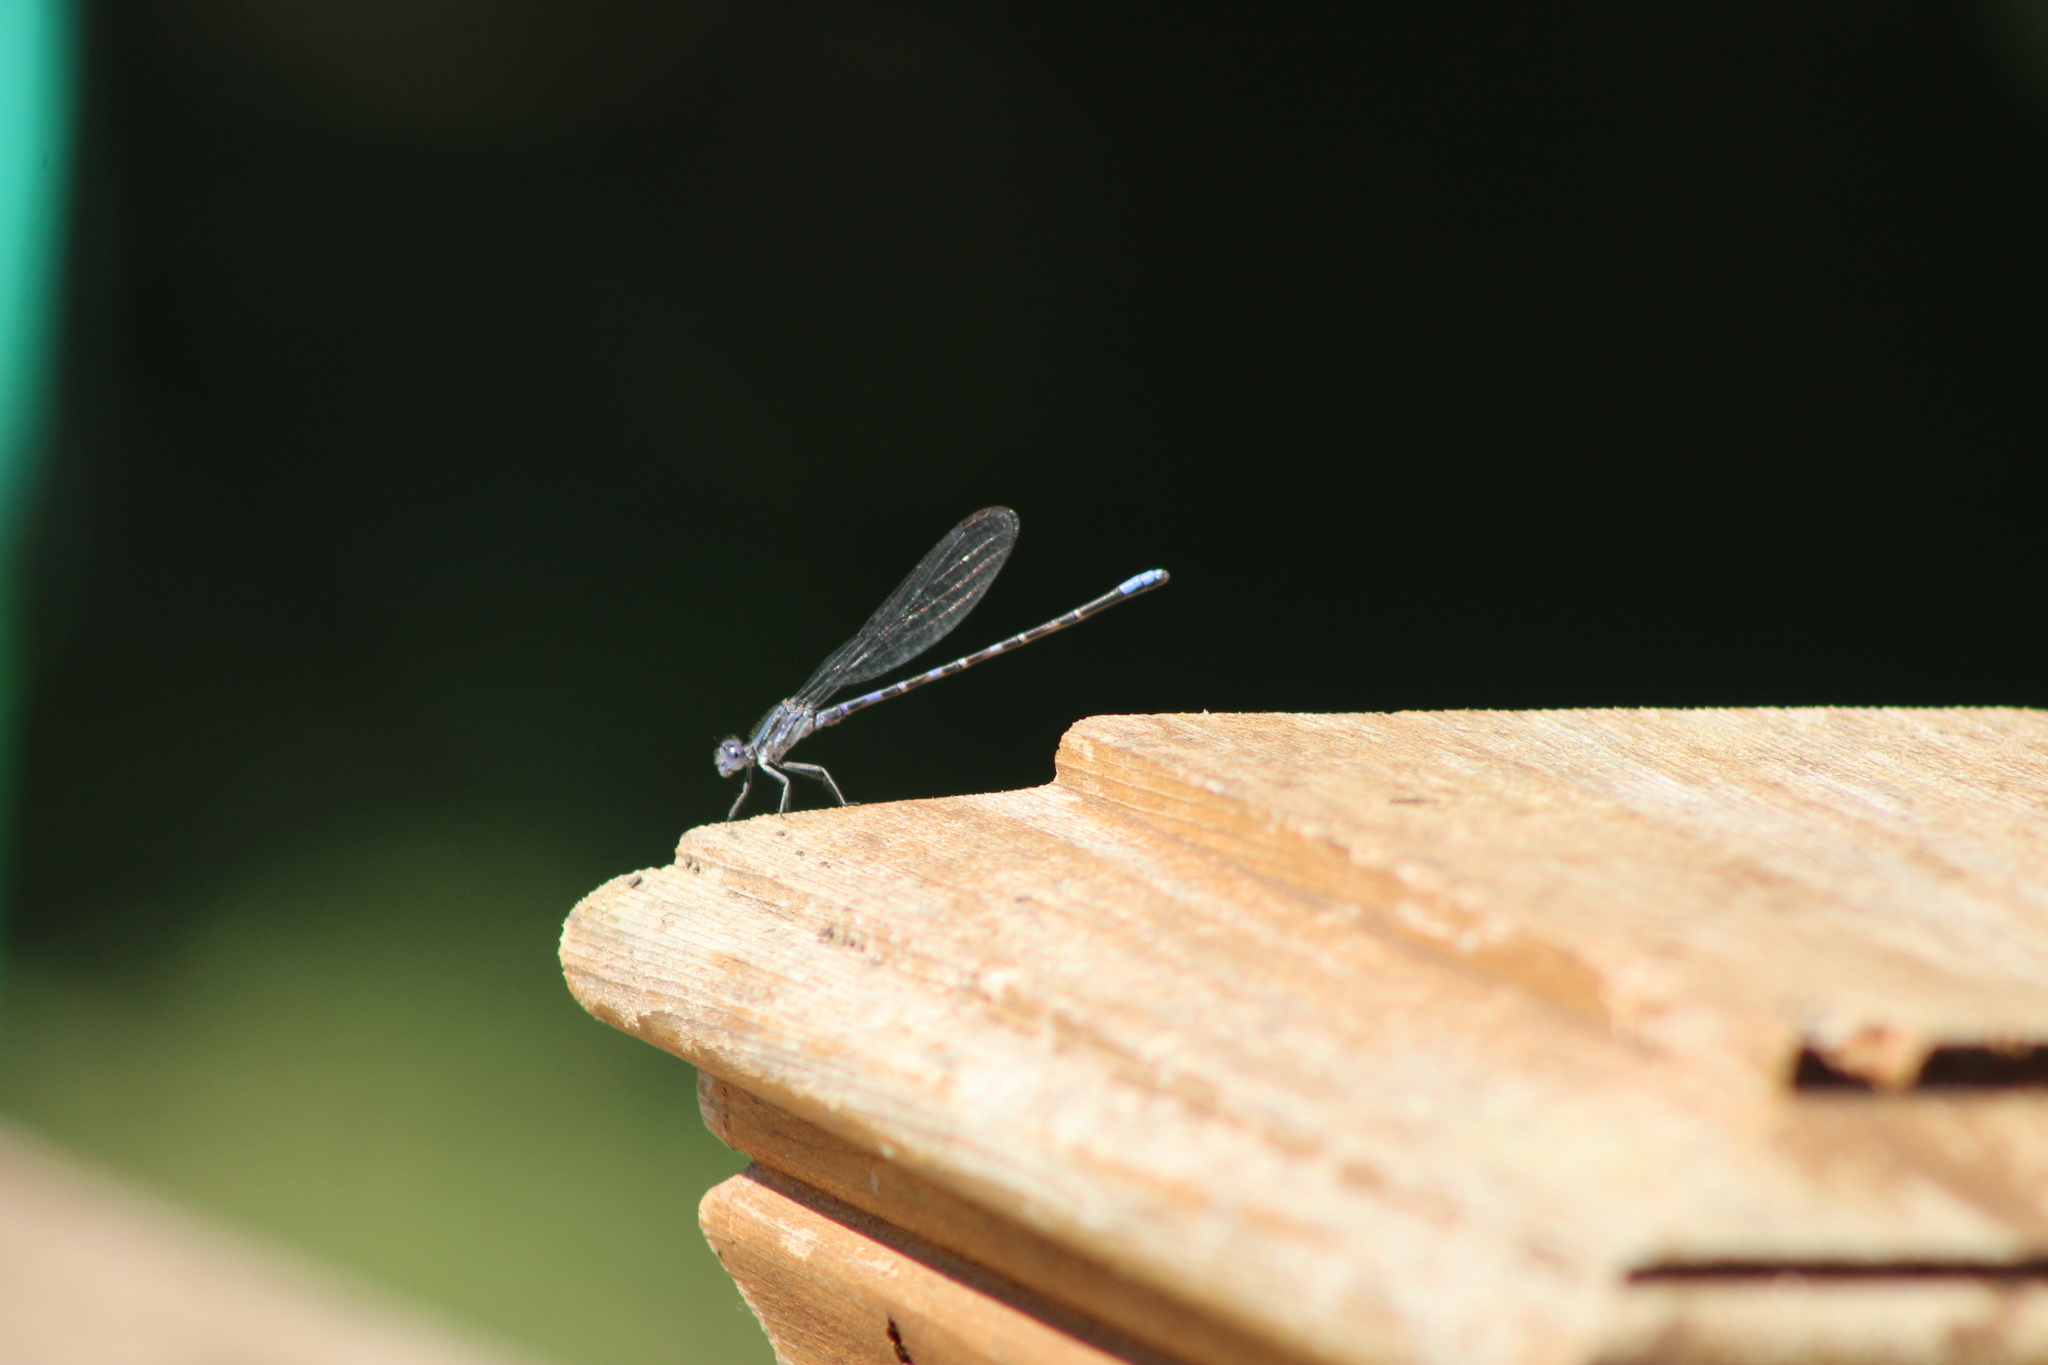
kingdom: Animalia
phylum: Arthropoda
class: Insecta
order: Odonata
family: Coenagrionidae
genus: Argia
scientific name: Argia immunda
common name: Kiowa dancer
